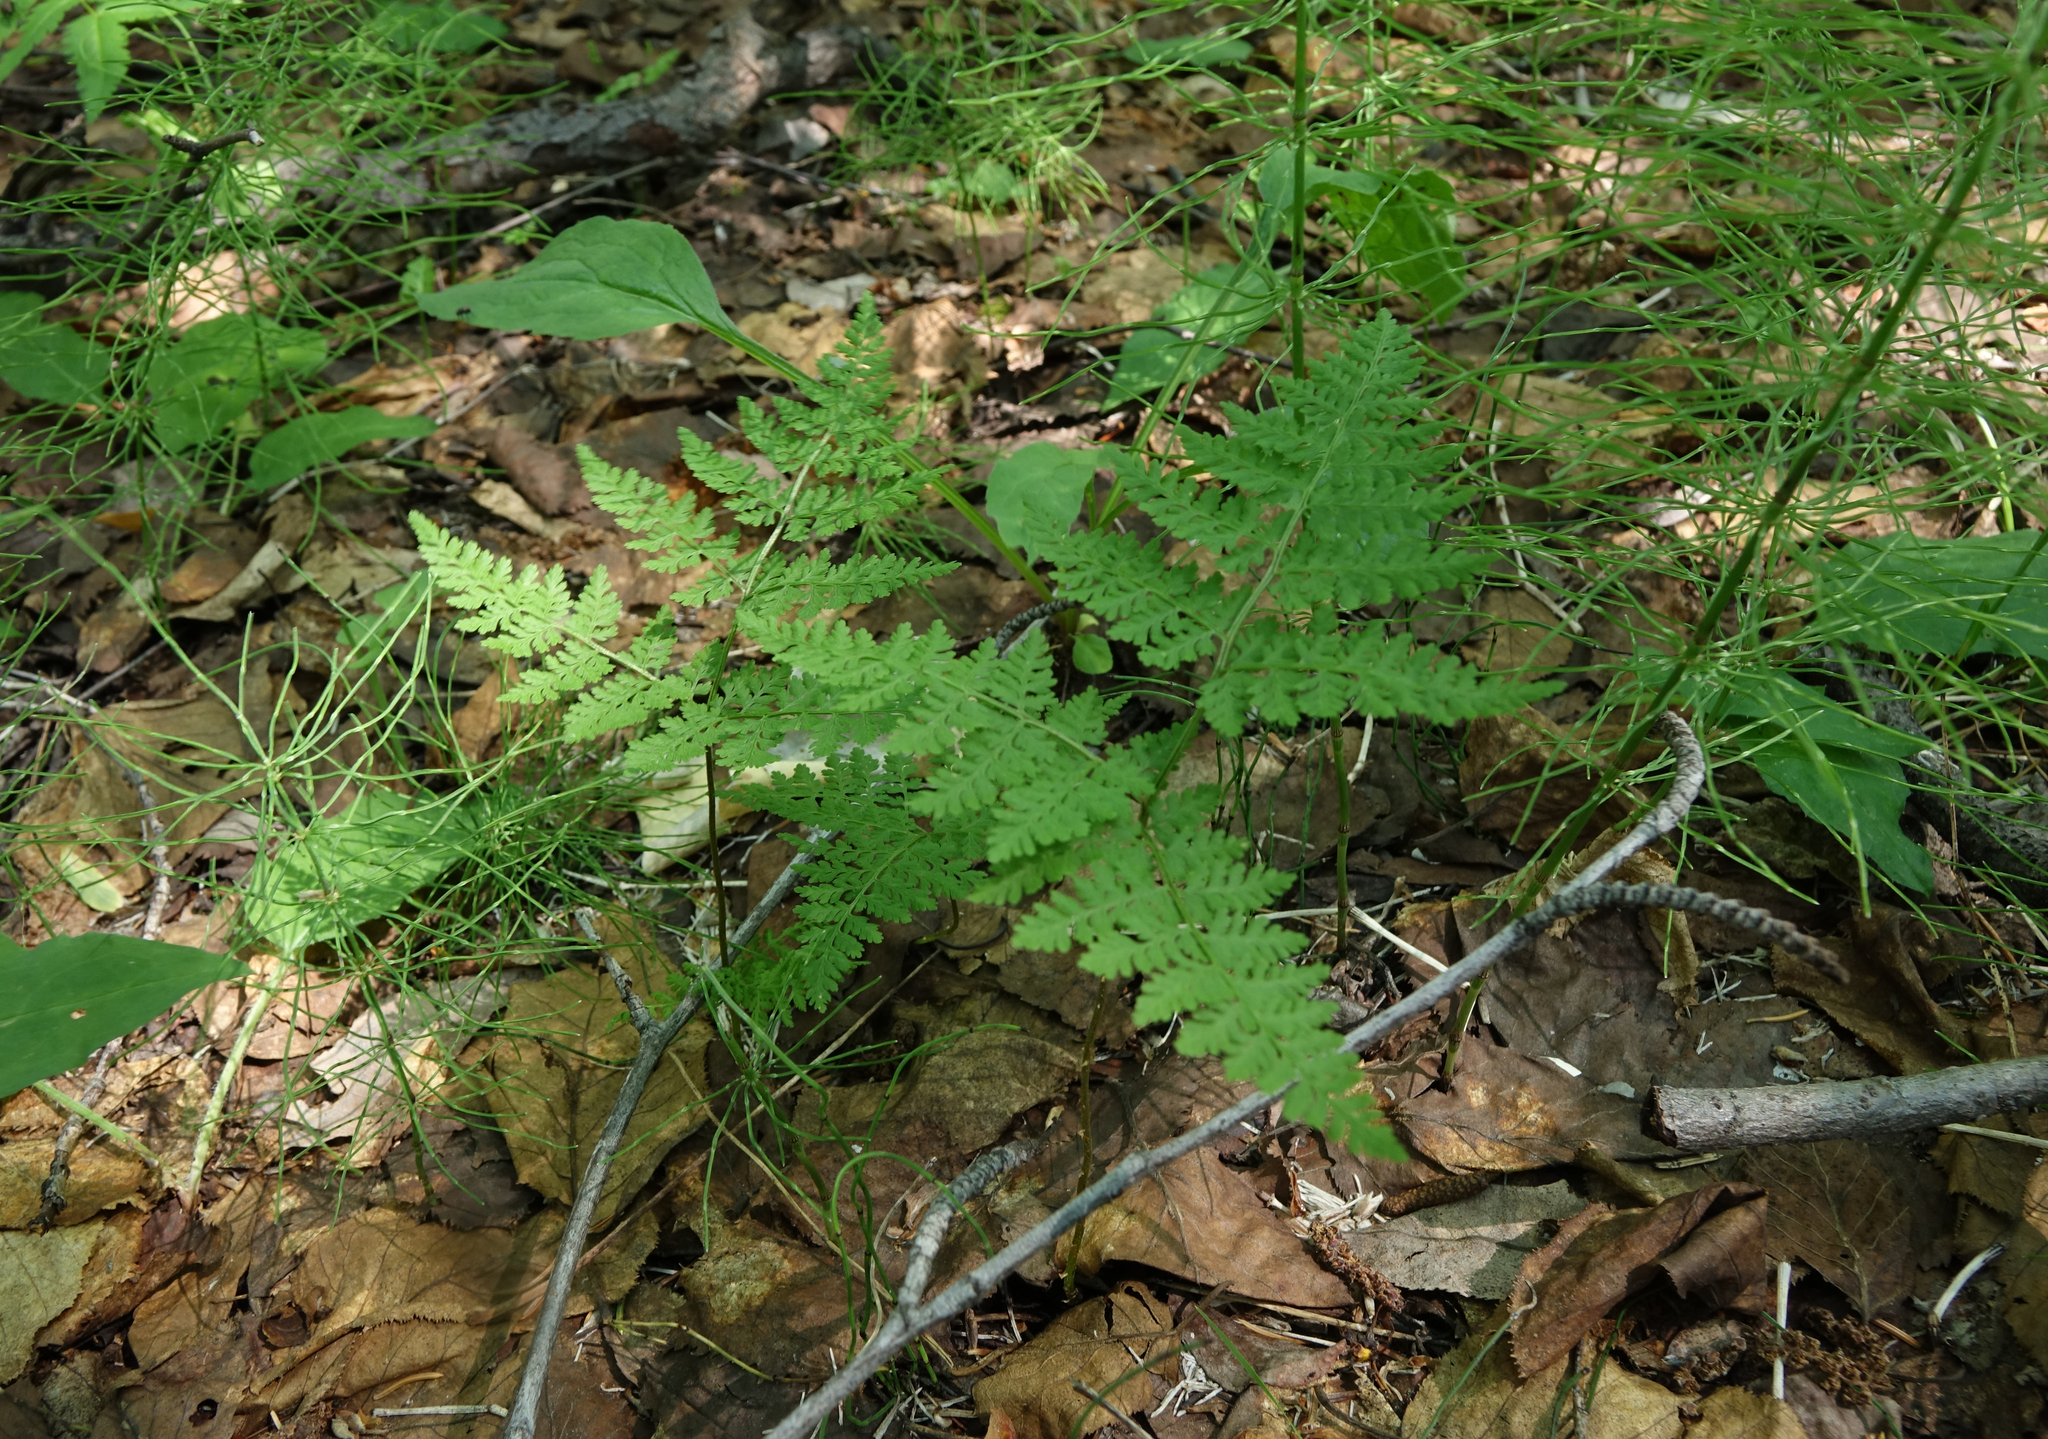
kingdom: Plantae
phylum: Tracheophyta
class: Polypodiopsida
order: Polypodiales
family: Cystopteridaceae
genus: Cystopteris
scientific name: Cystopteris montana
